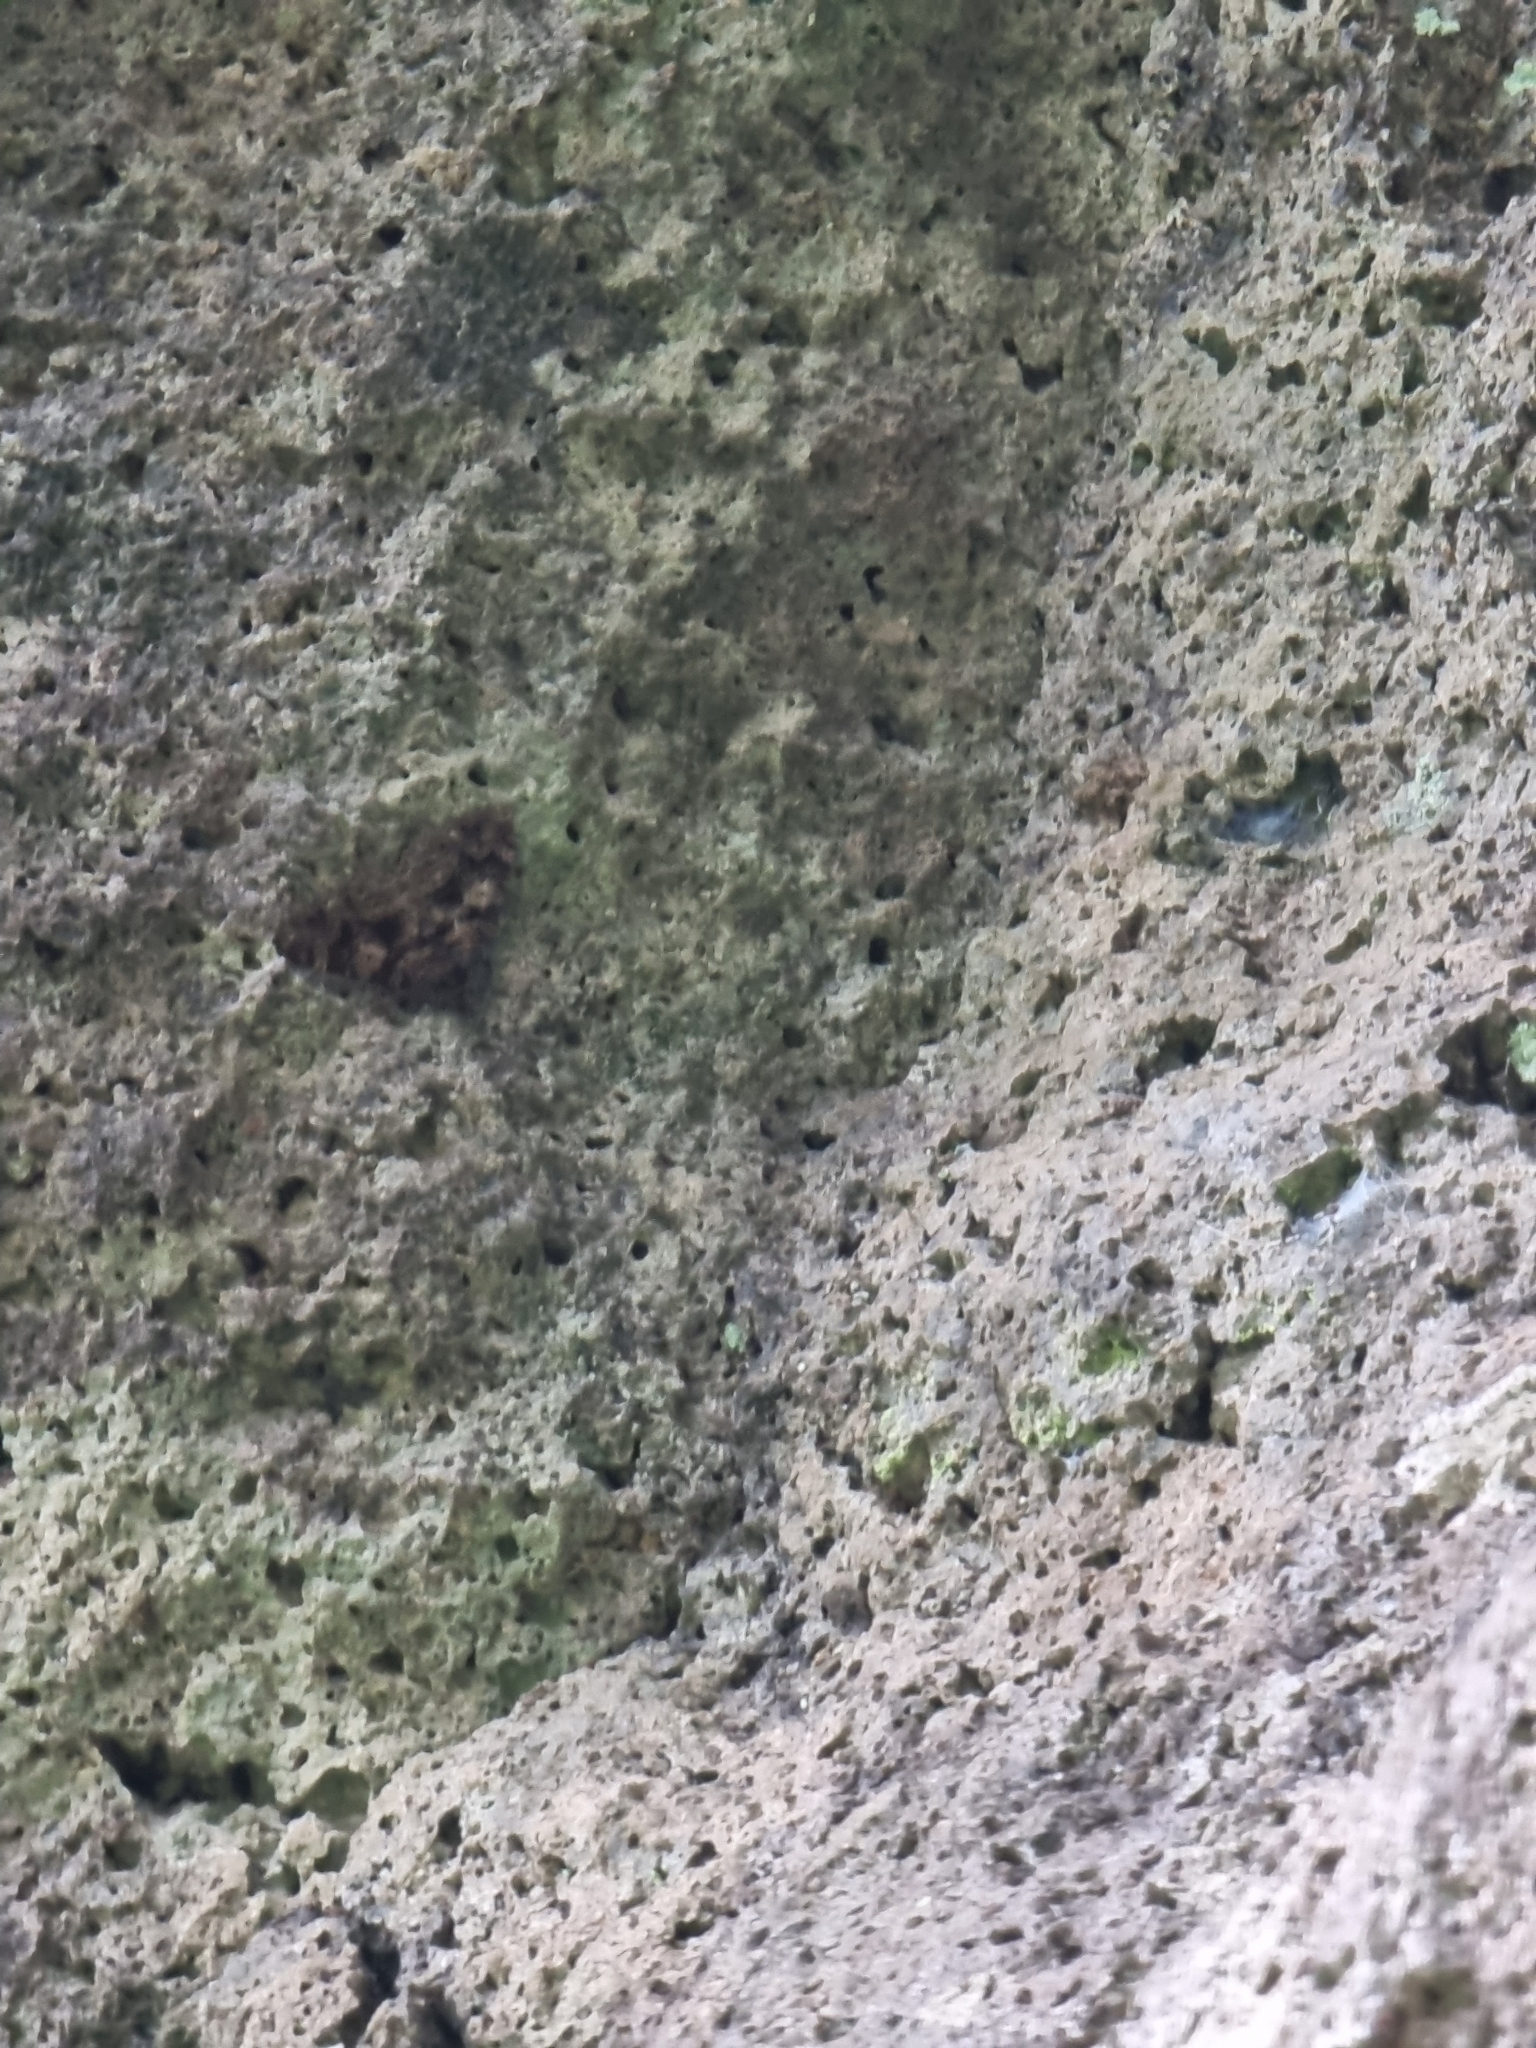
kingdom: Animalia
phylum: Arthropoda
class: Insecta
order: Lepidoptera
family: Geometridae
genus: Xanthorhoe
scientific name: Xanthorhoe rupicola
